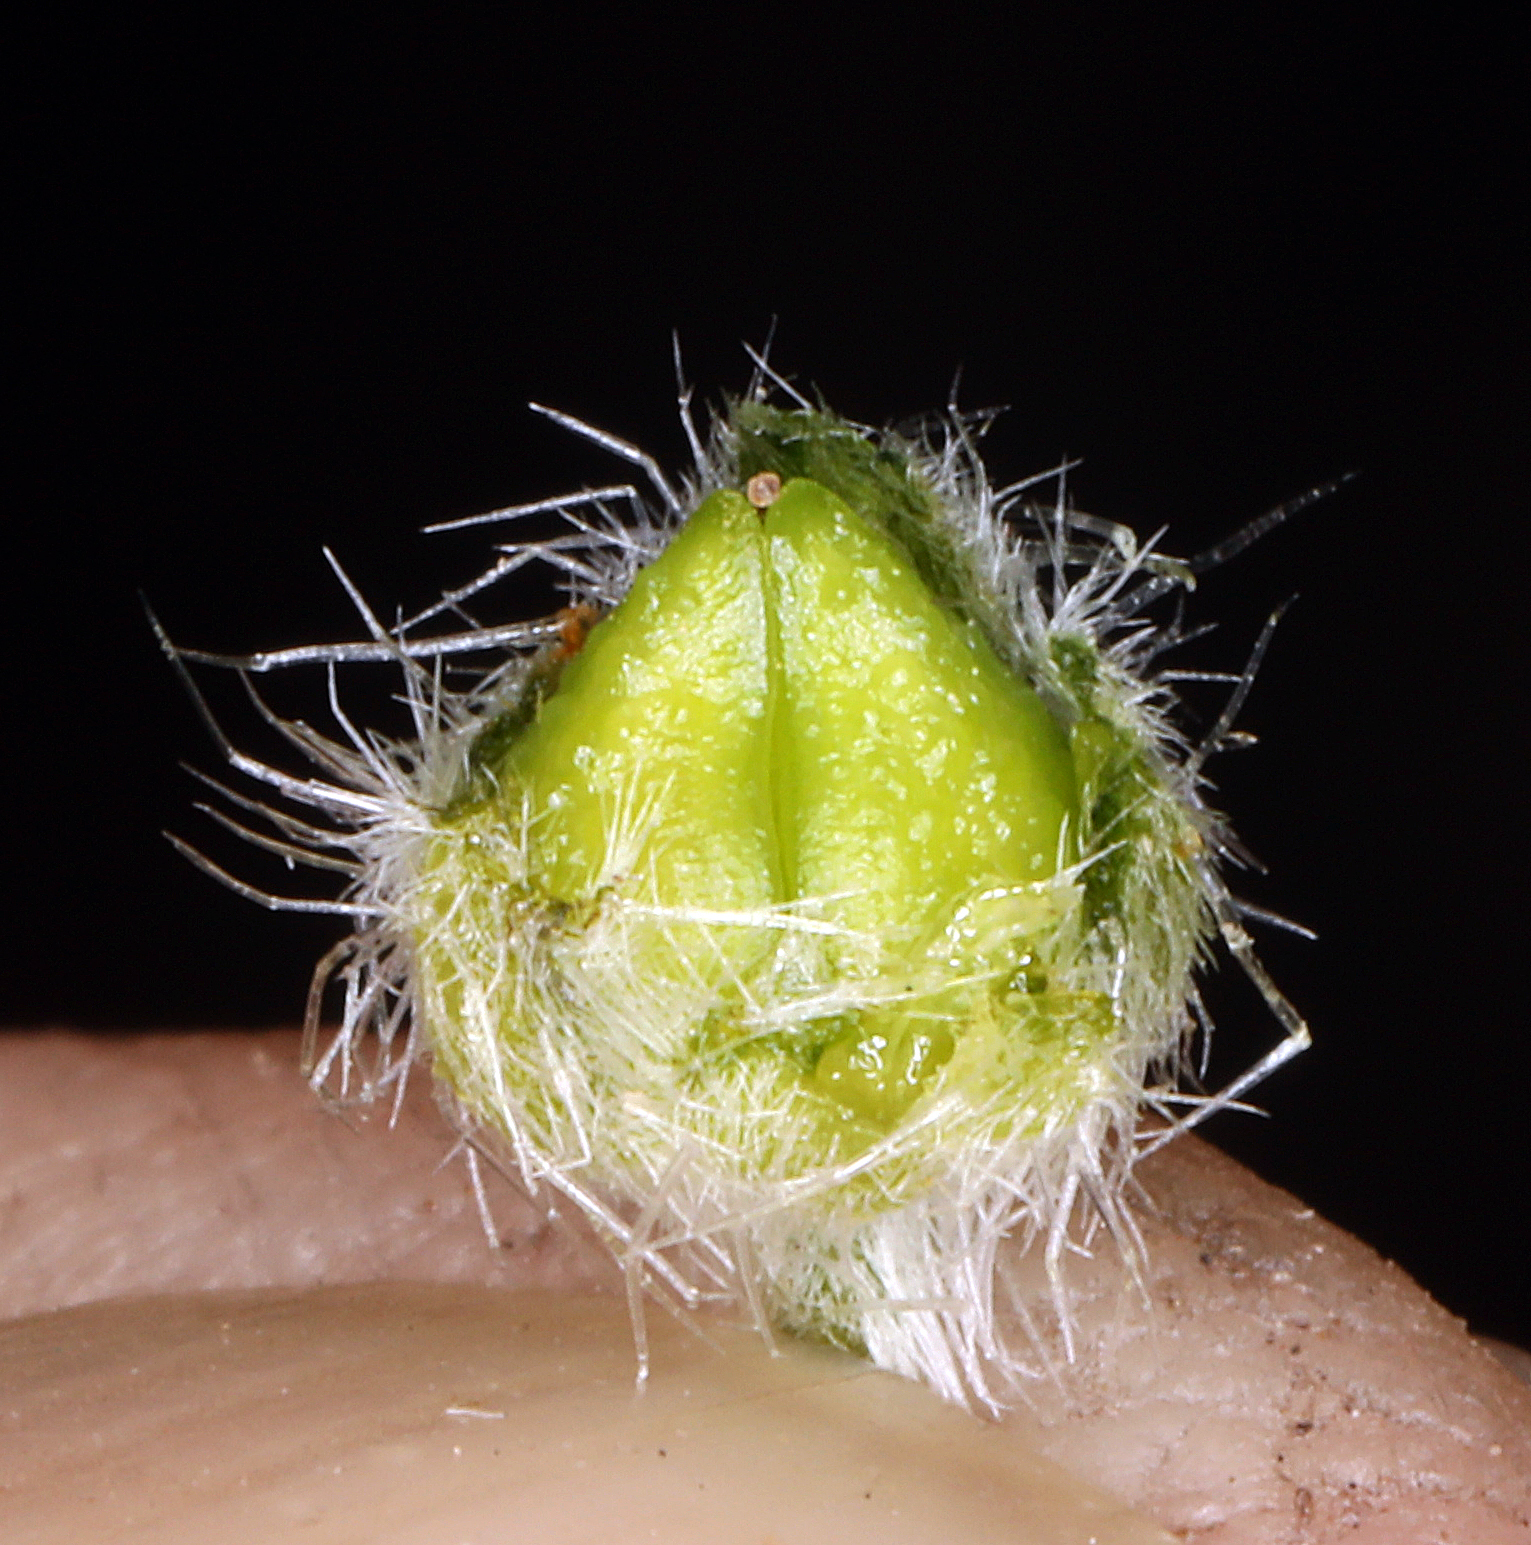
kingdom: Plantae
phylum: Tracheophyta
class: Magnoliopsida
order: Boraginales
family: Boraginaceae
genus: Oreocarya
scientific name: Oreocarya tumulosa
